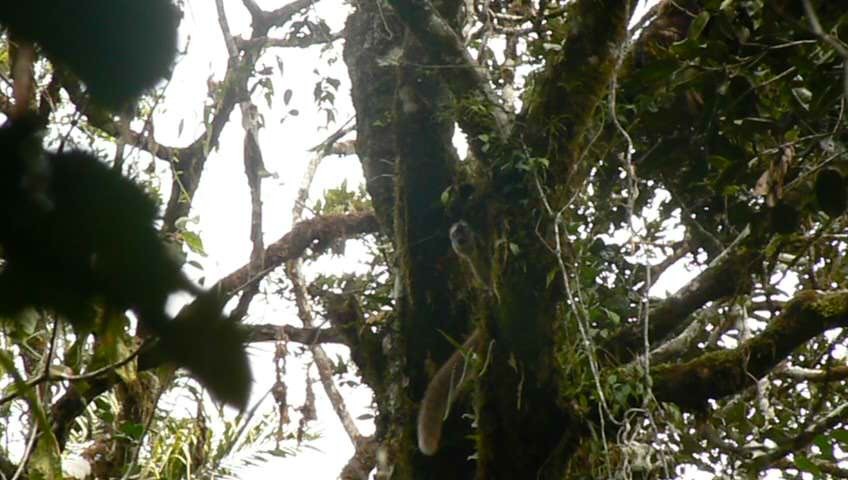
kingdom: Animalia
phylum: Chordata
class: Mammalia
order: Primates
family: Lemuridae
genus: Eulemur
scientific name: Eulemur rufifrons
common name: Red-fronted brown lemur
